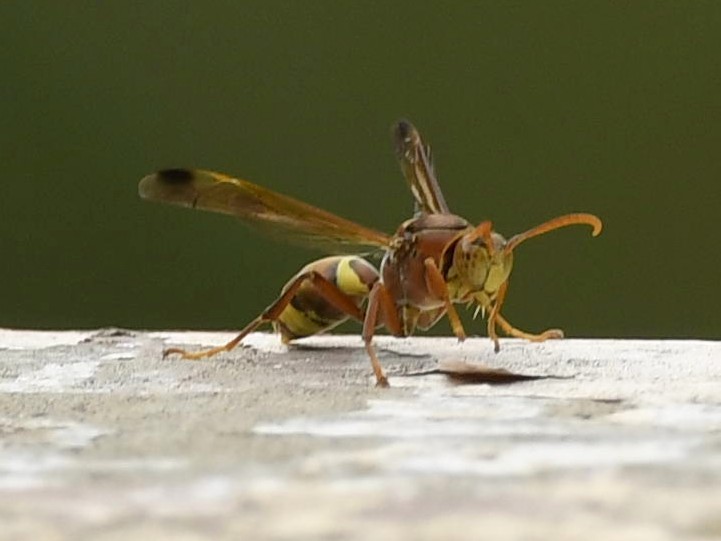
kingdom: Animalia
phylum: Arthropoda
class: Insecta
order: Hymenoptera
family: Eumenidae
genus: Polistes
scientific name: Polistes stigma
